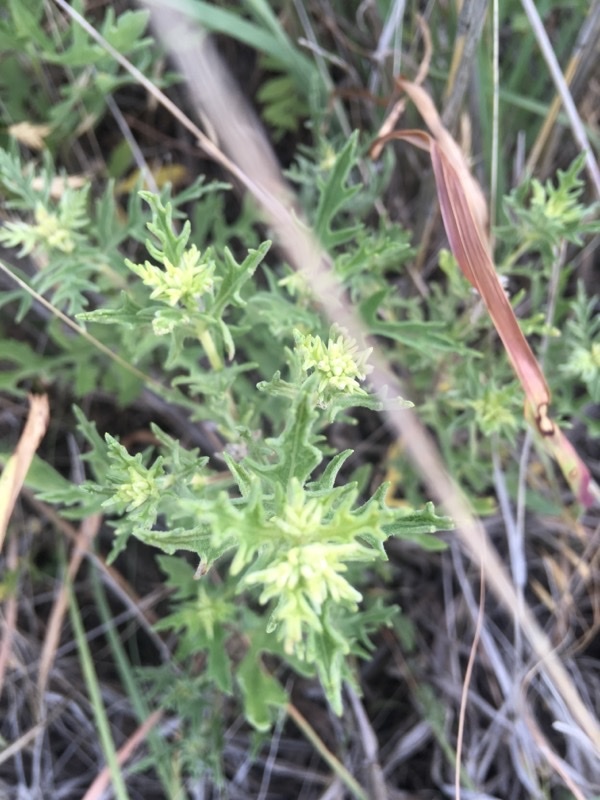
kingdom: Plantae
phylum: Tracheophyta
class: Magnoliopsida
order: Asterales
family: Asteraceae
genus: Ambrosia
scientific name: Ambrosia psilostachya
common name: Perennial ragweed
